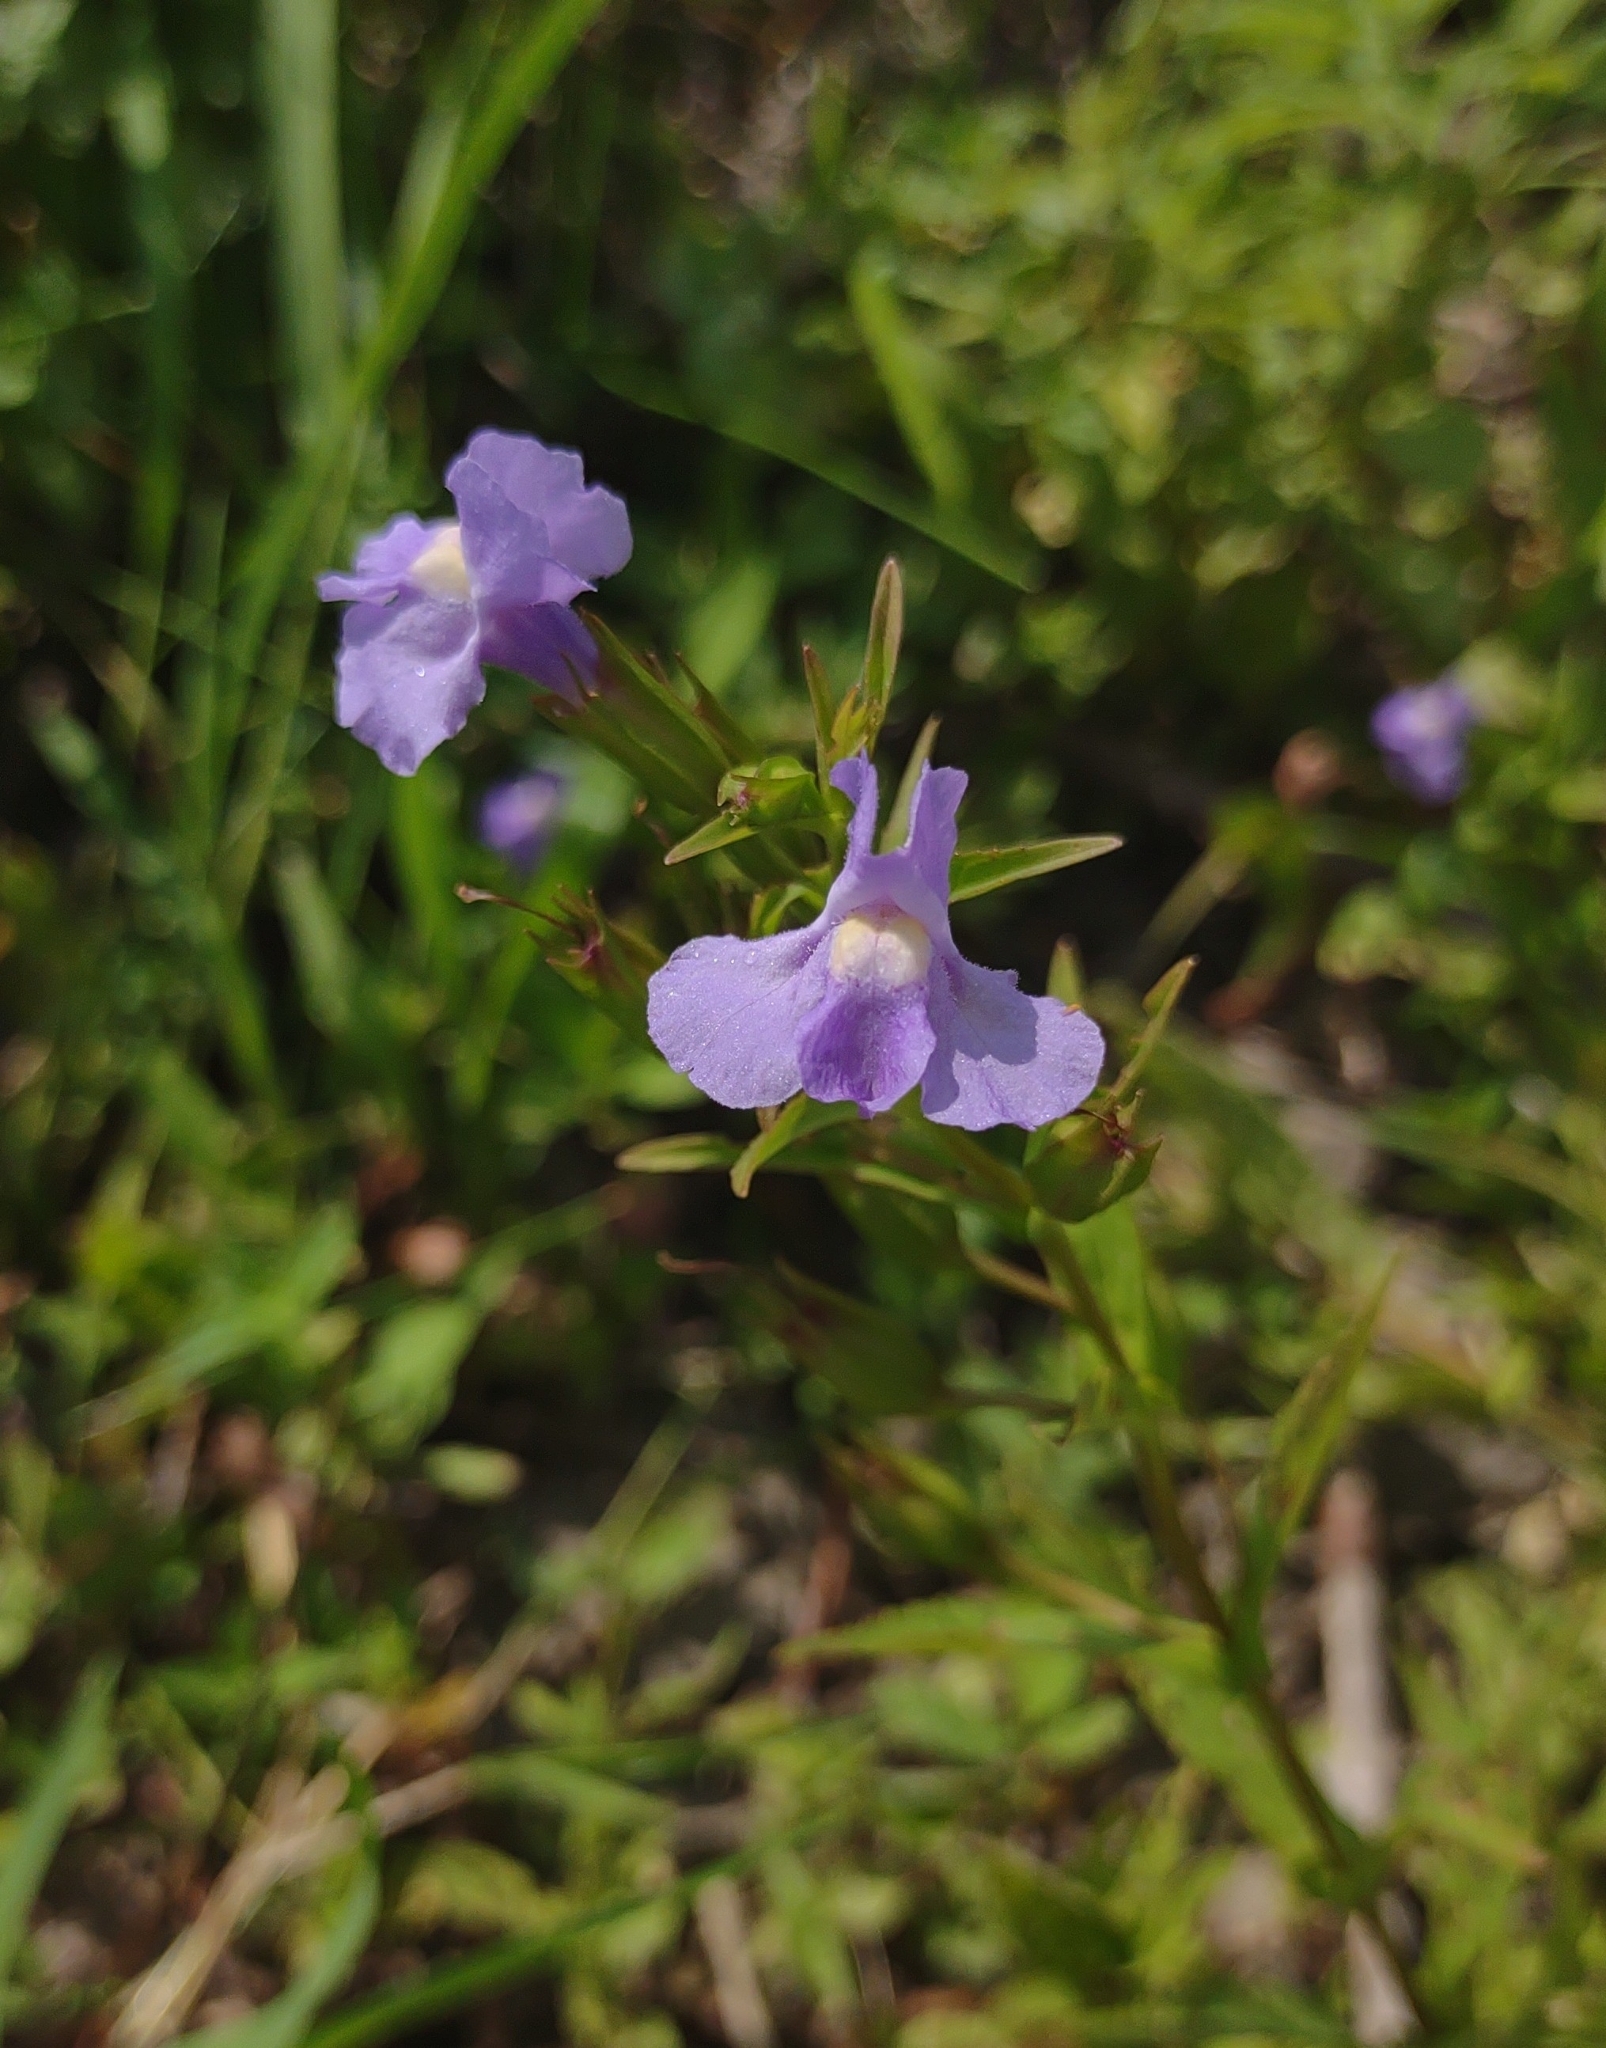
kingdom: Plantae
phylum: Tracheophyta
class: Magnoliopsida
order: Lamiales
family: Phrymaceae
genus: Mimulus
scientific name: Mimulus ringens
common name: Allegheny monkeyflower
